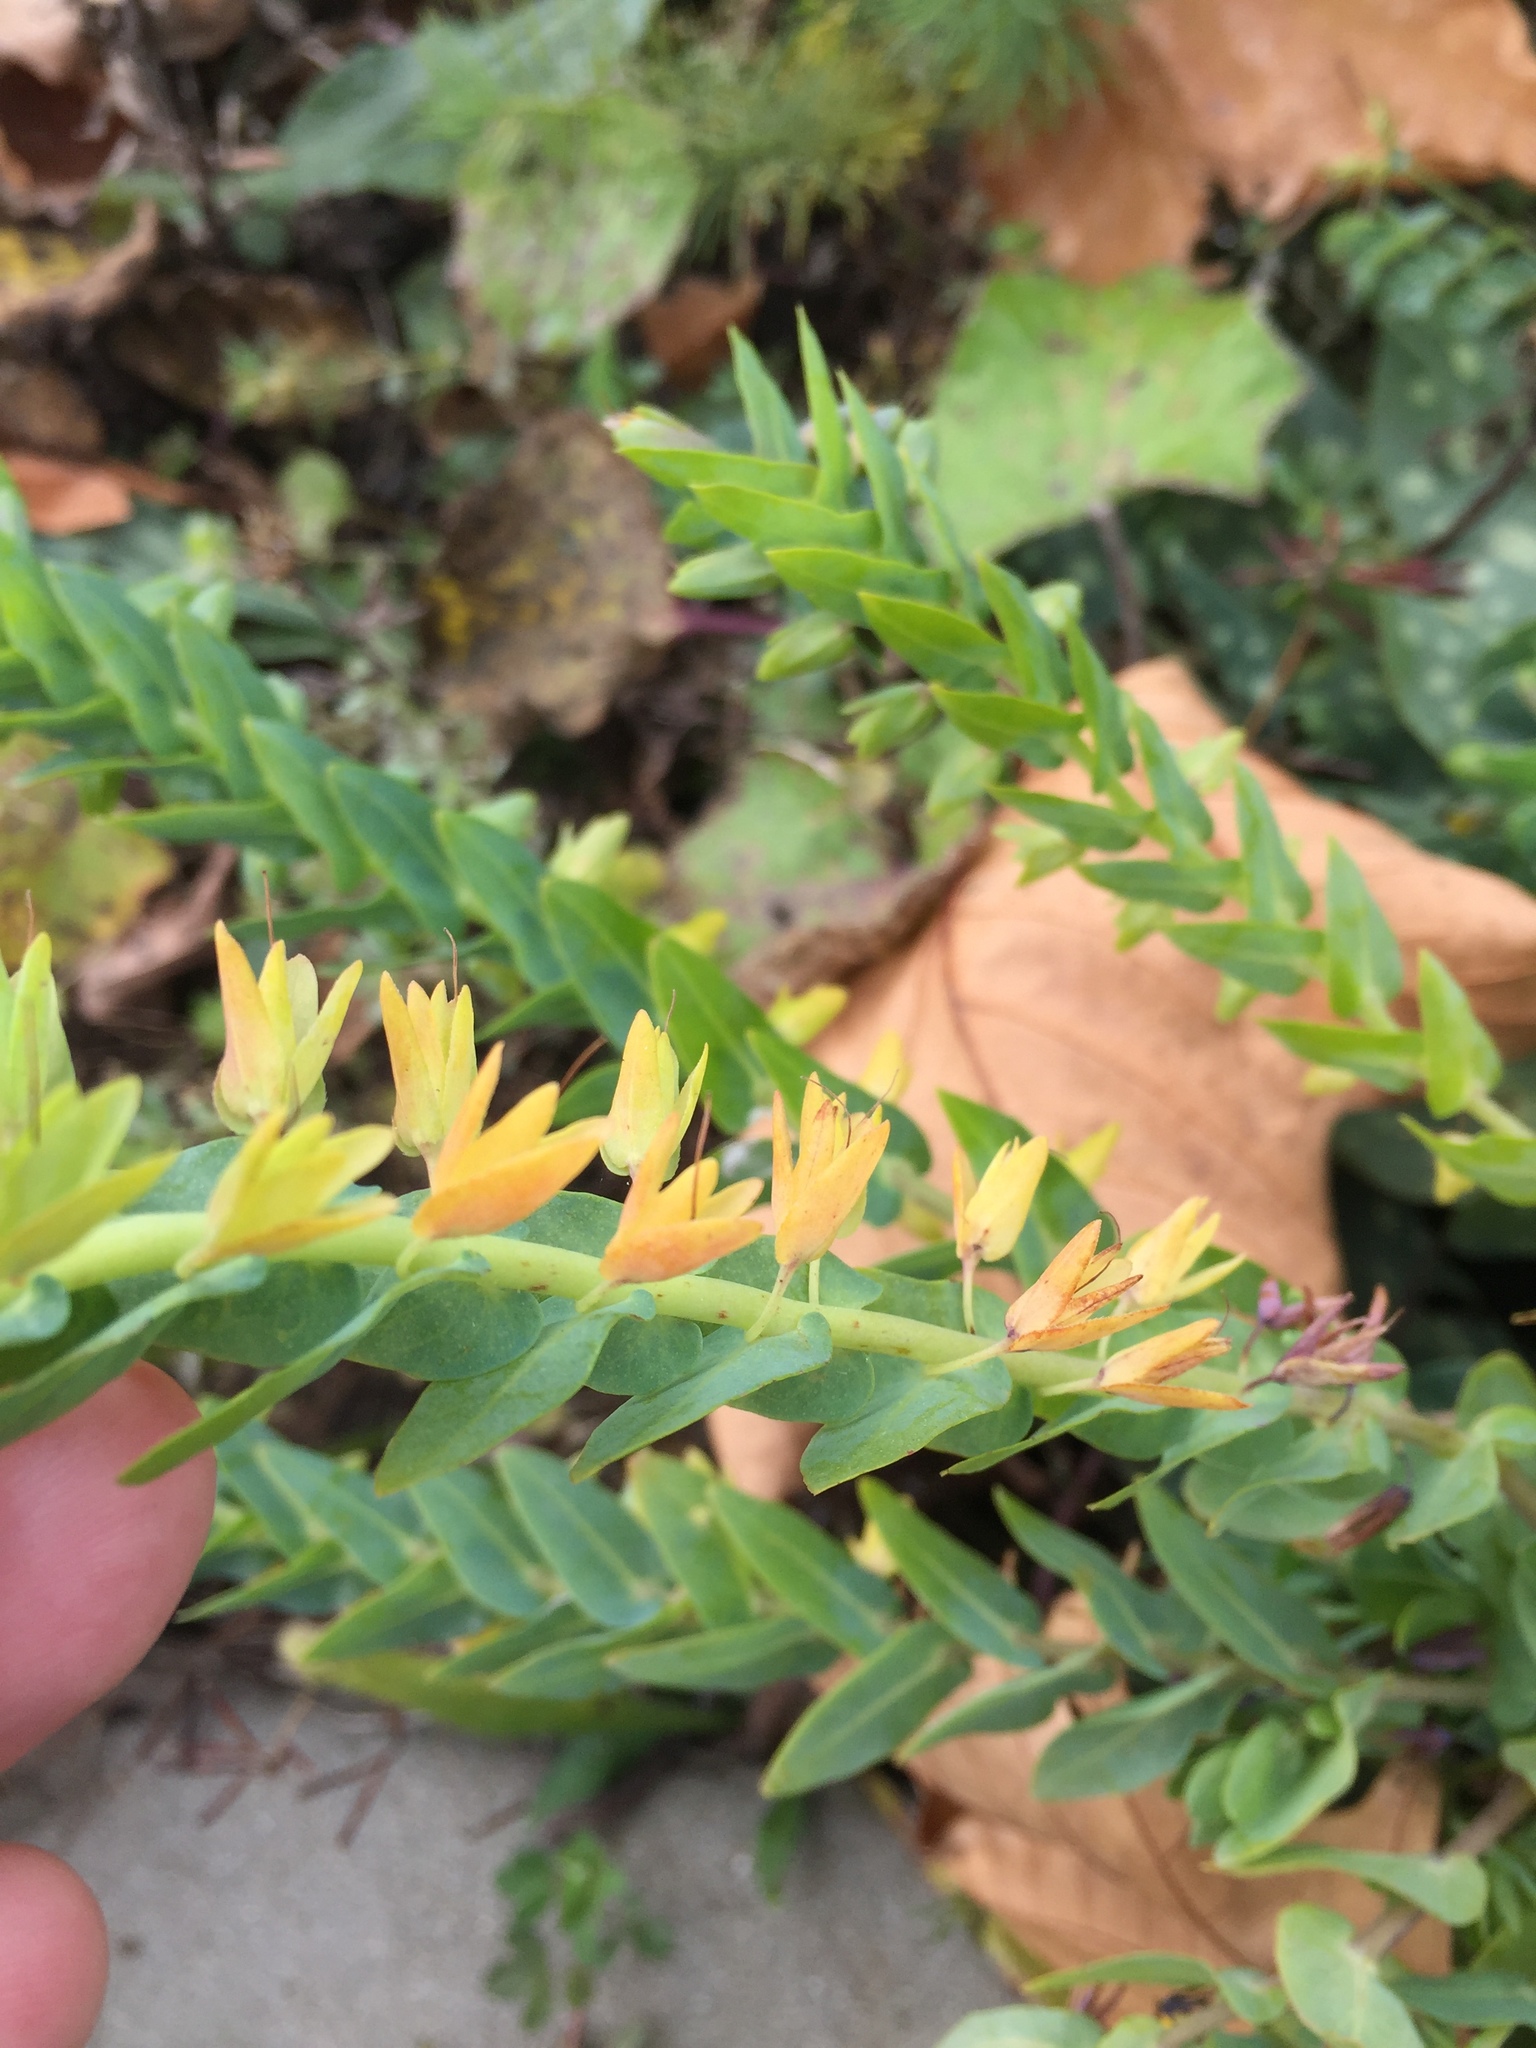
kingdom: Plantae
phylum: Tracheophyta
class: Magnoliopsida
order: Boraginales
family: Boraginaceae
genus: Cerinthe
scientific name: Cerinthe minor
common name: Lesser honeywort
